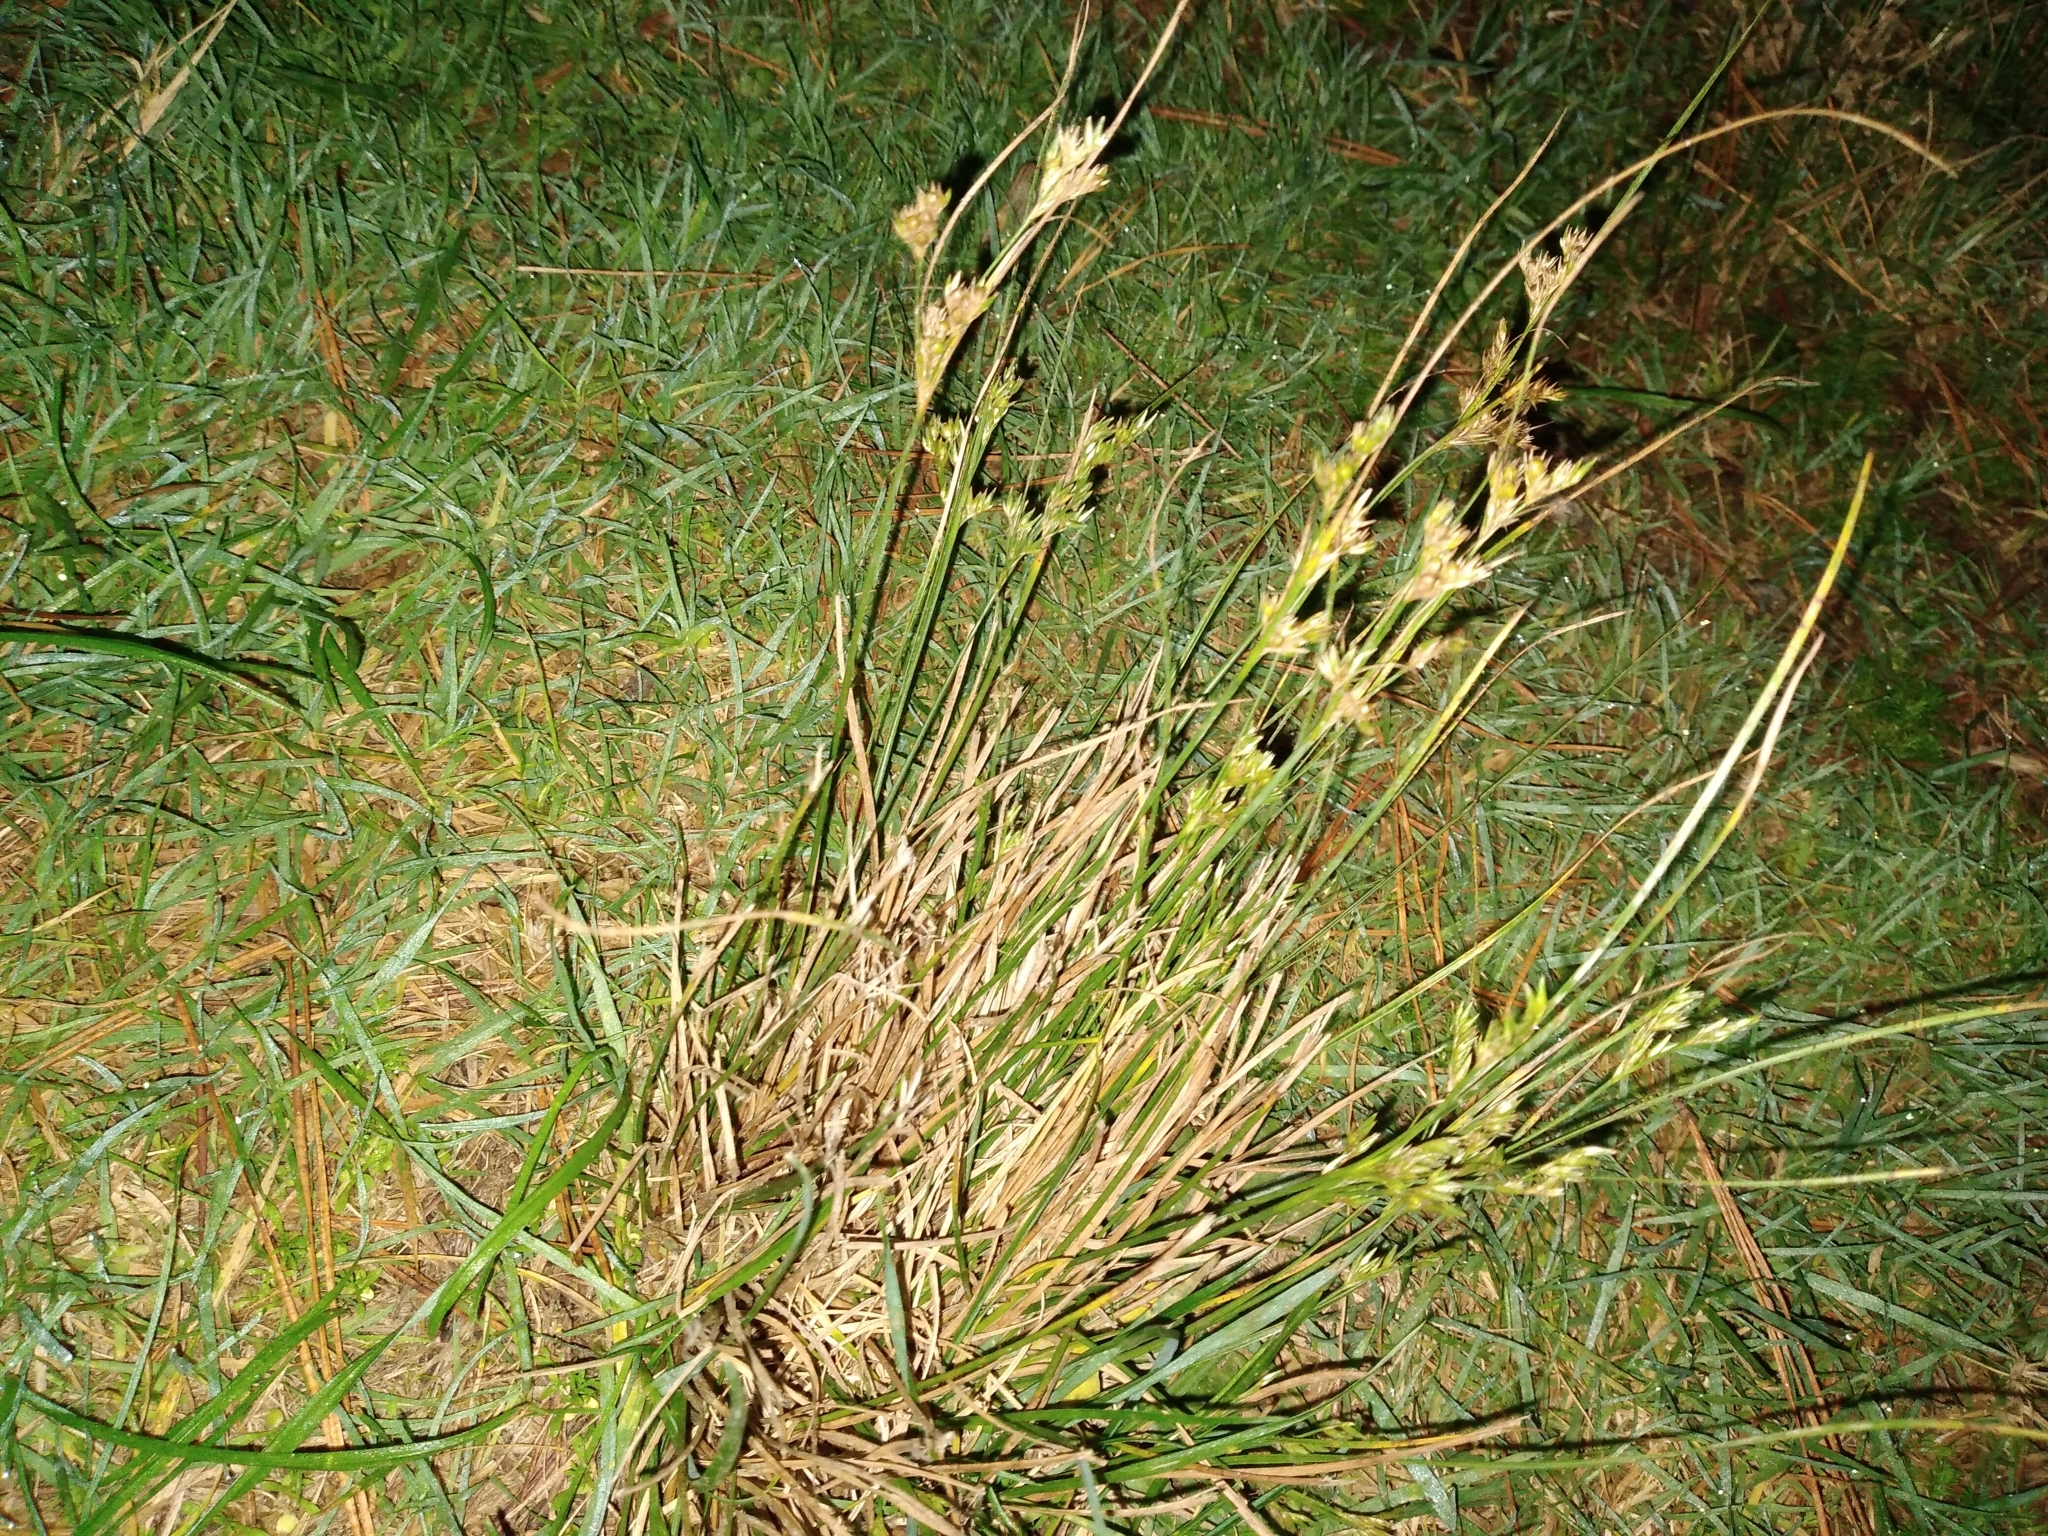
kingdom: Plantae
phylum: Tracheophyta
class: Liliopsida
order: Poales
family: Juncaceae
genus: Juncus
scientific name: Juncus tenuis
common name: Slender rush
